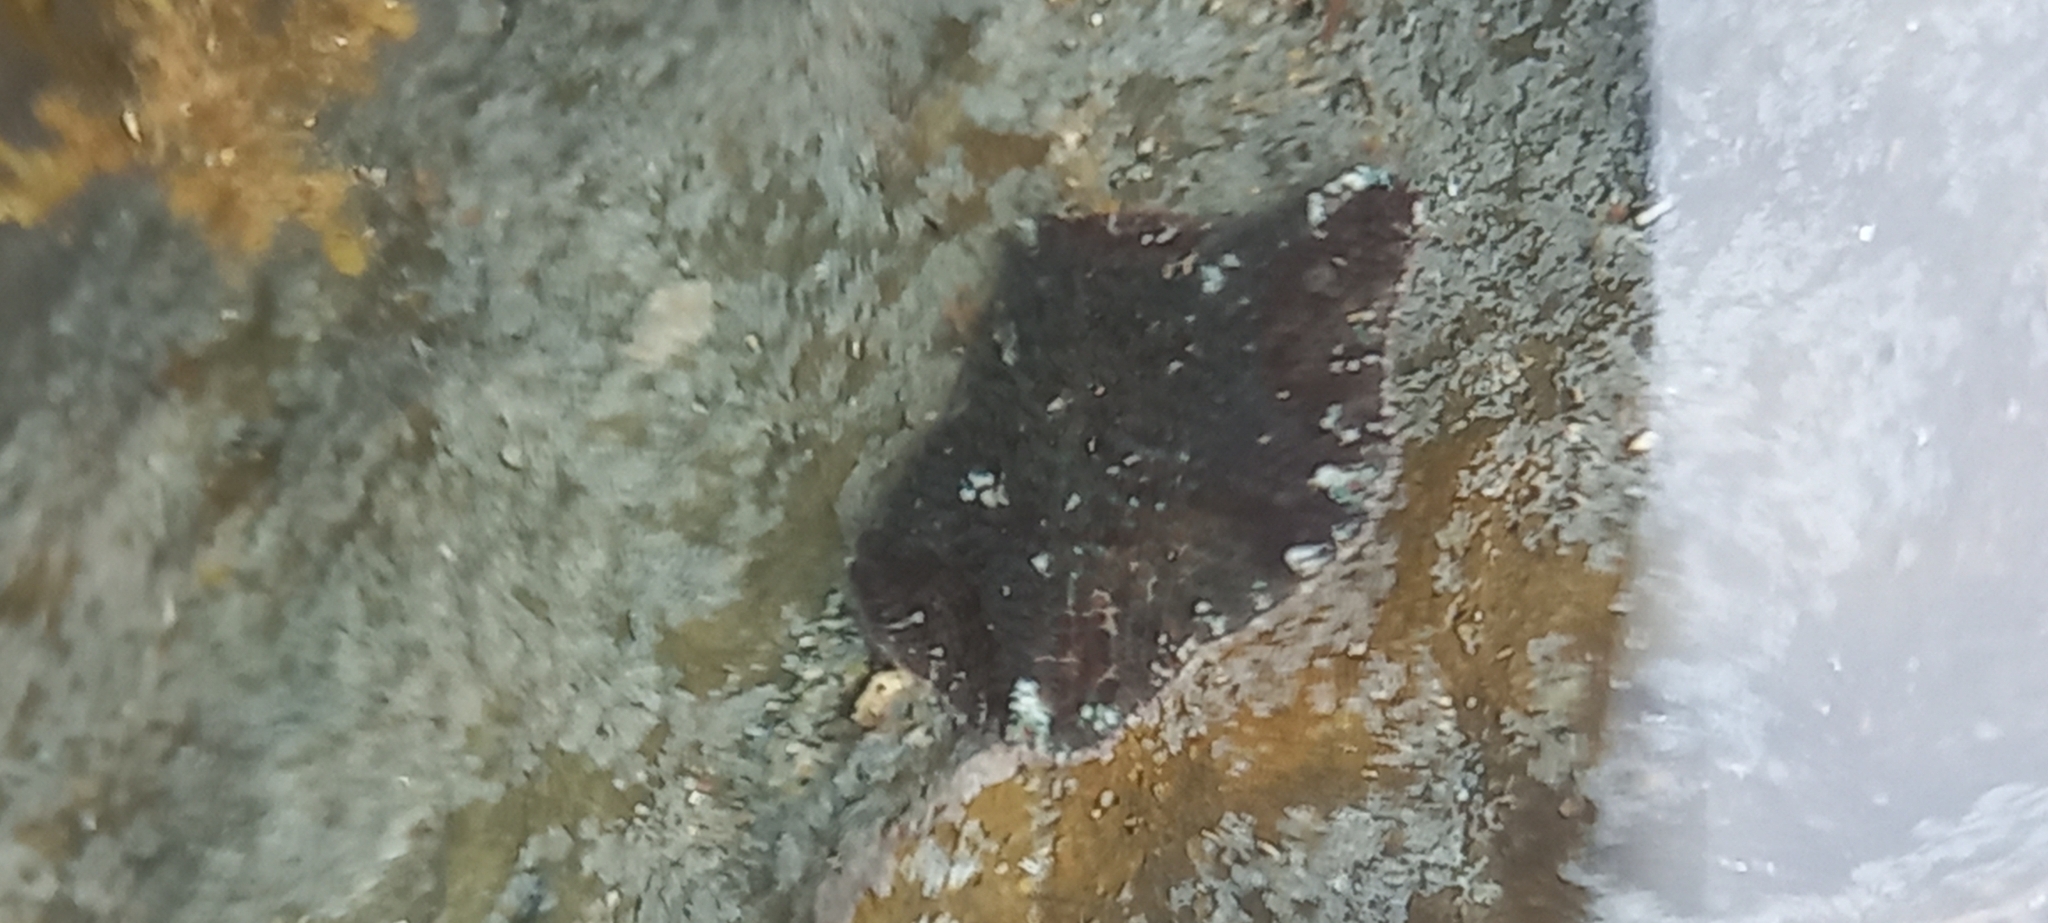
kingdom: Animalia
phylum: Echinodermata
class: Asteroidea
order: Valvatida
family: Asterinidae
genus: Parvulastra
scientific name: Parvulastra exigua
